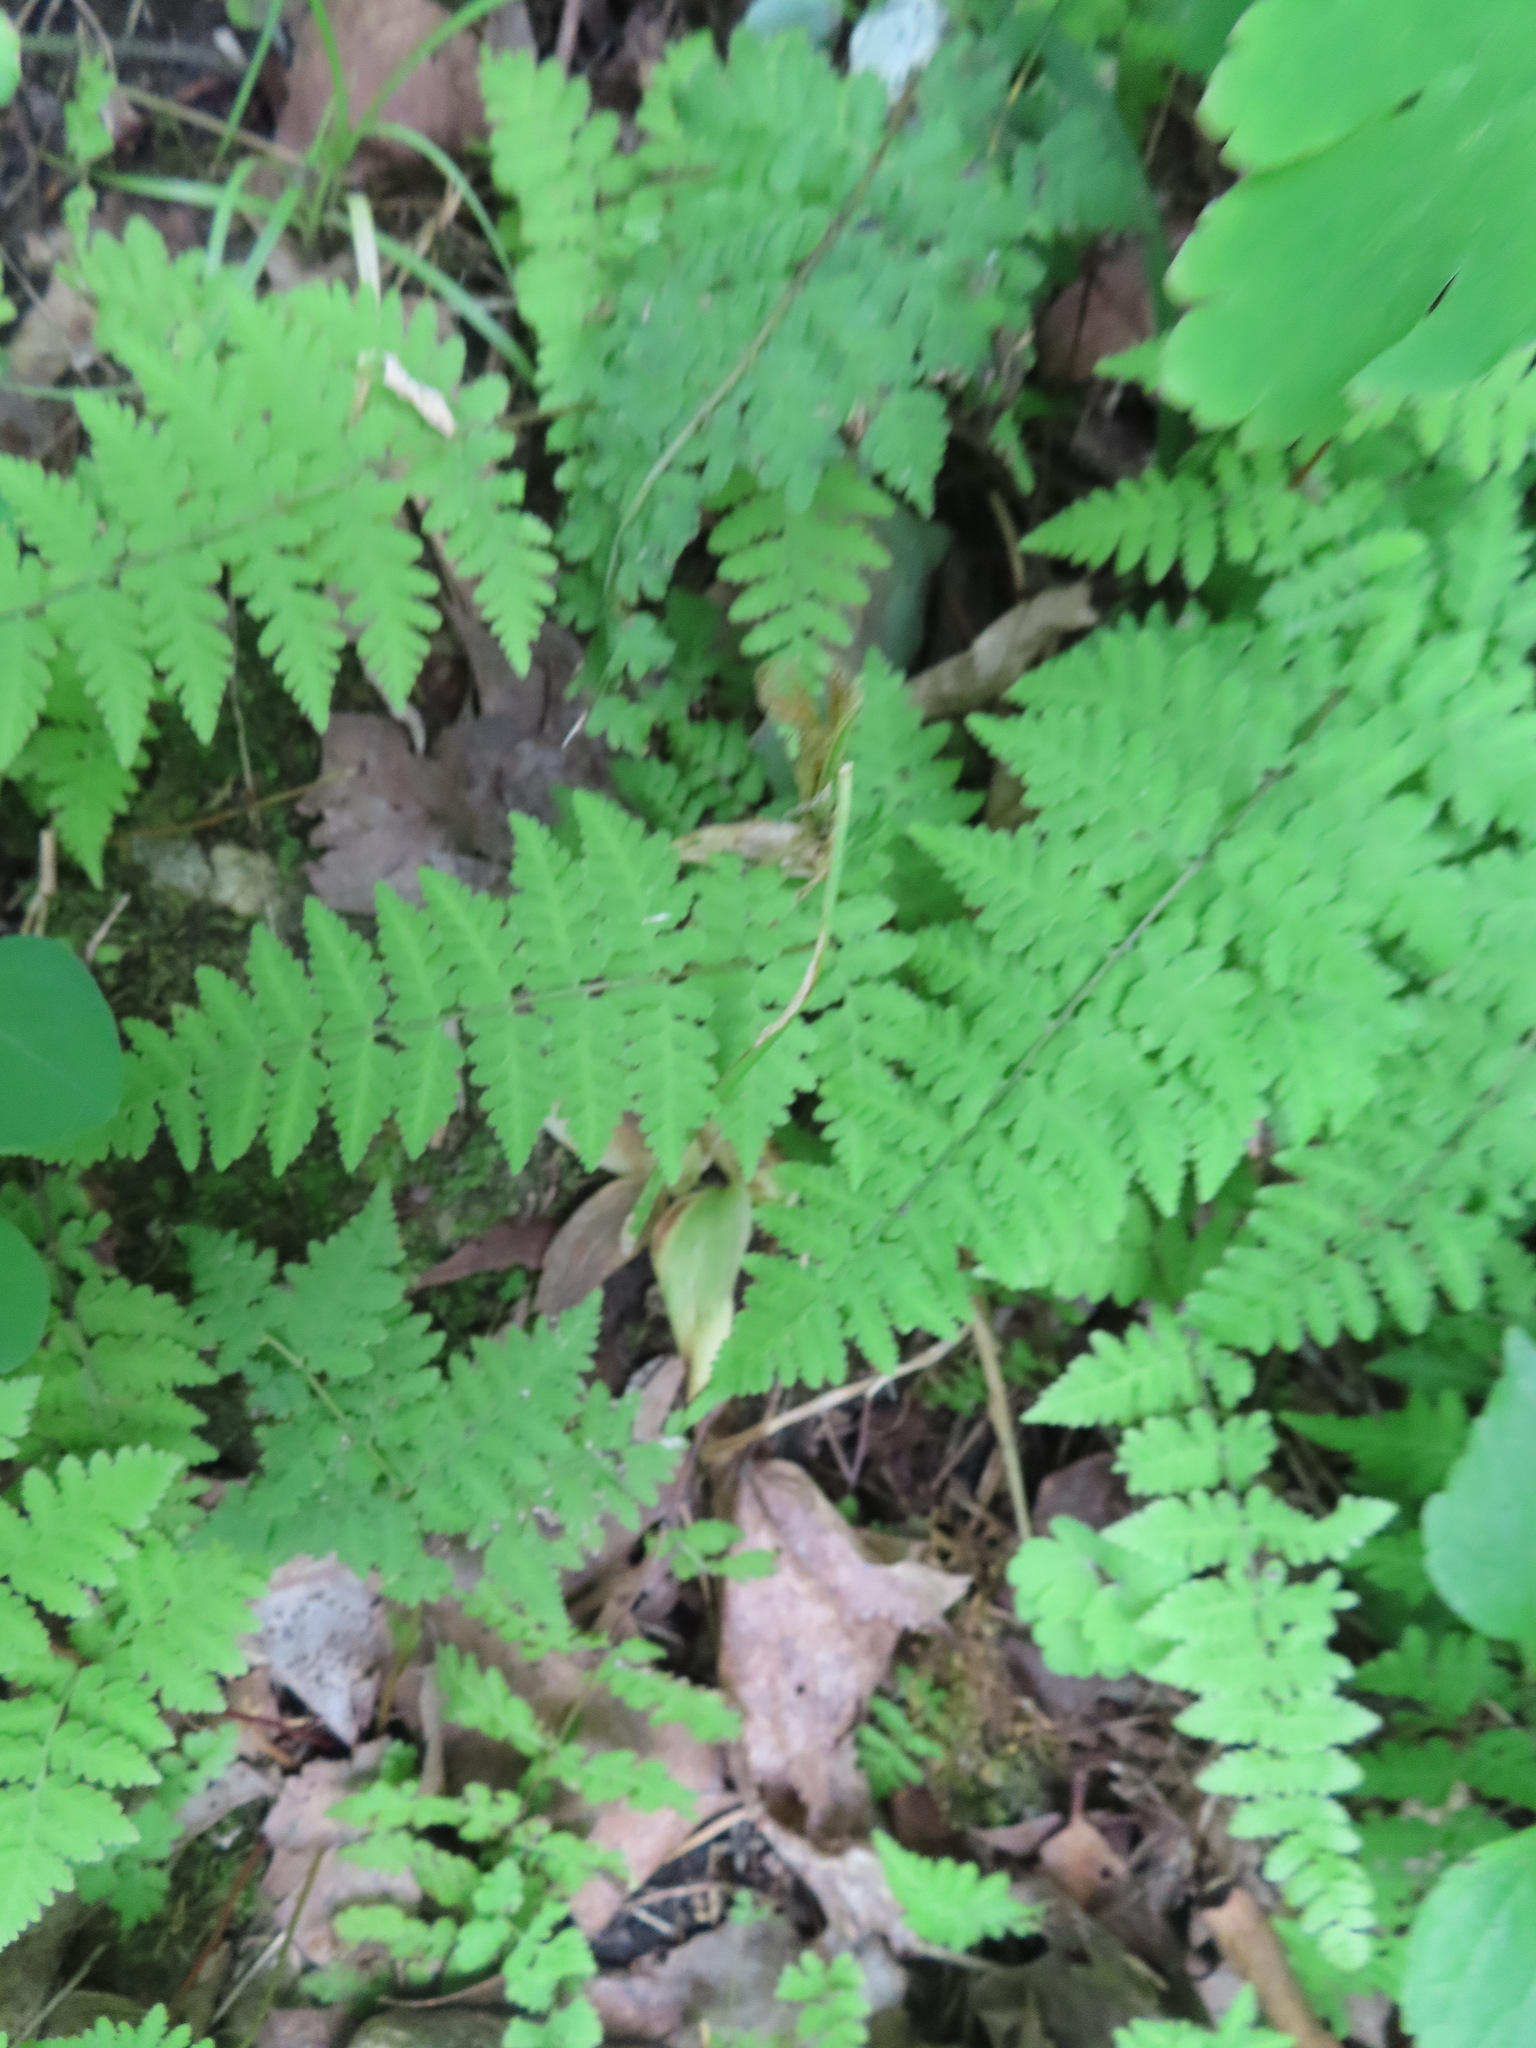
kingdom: Plantae
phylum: Tracheophyta
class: Polypodiopsida
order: Polypodiales
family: Cystopteridaceae
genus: Cystopteris
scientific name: Cystopteris bulbifera
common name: Bulblet bladder fern
